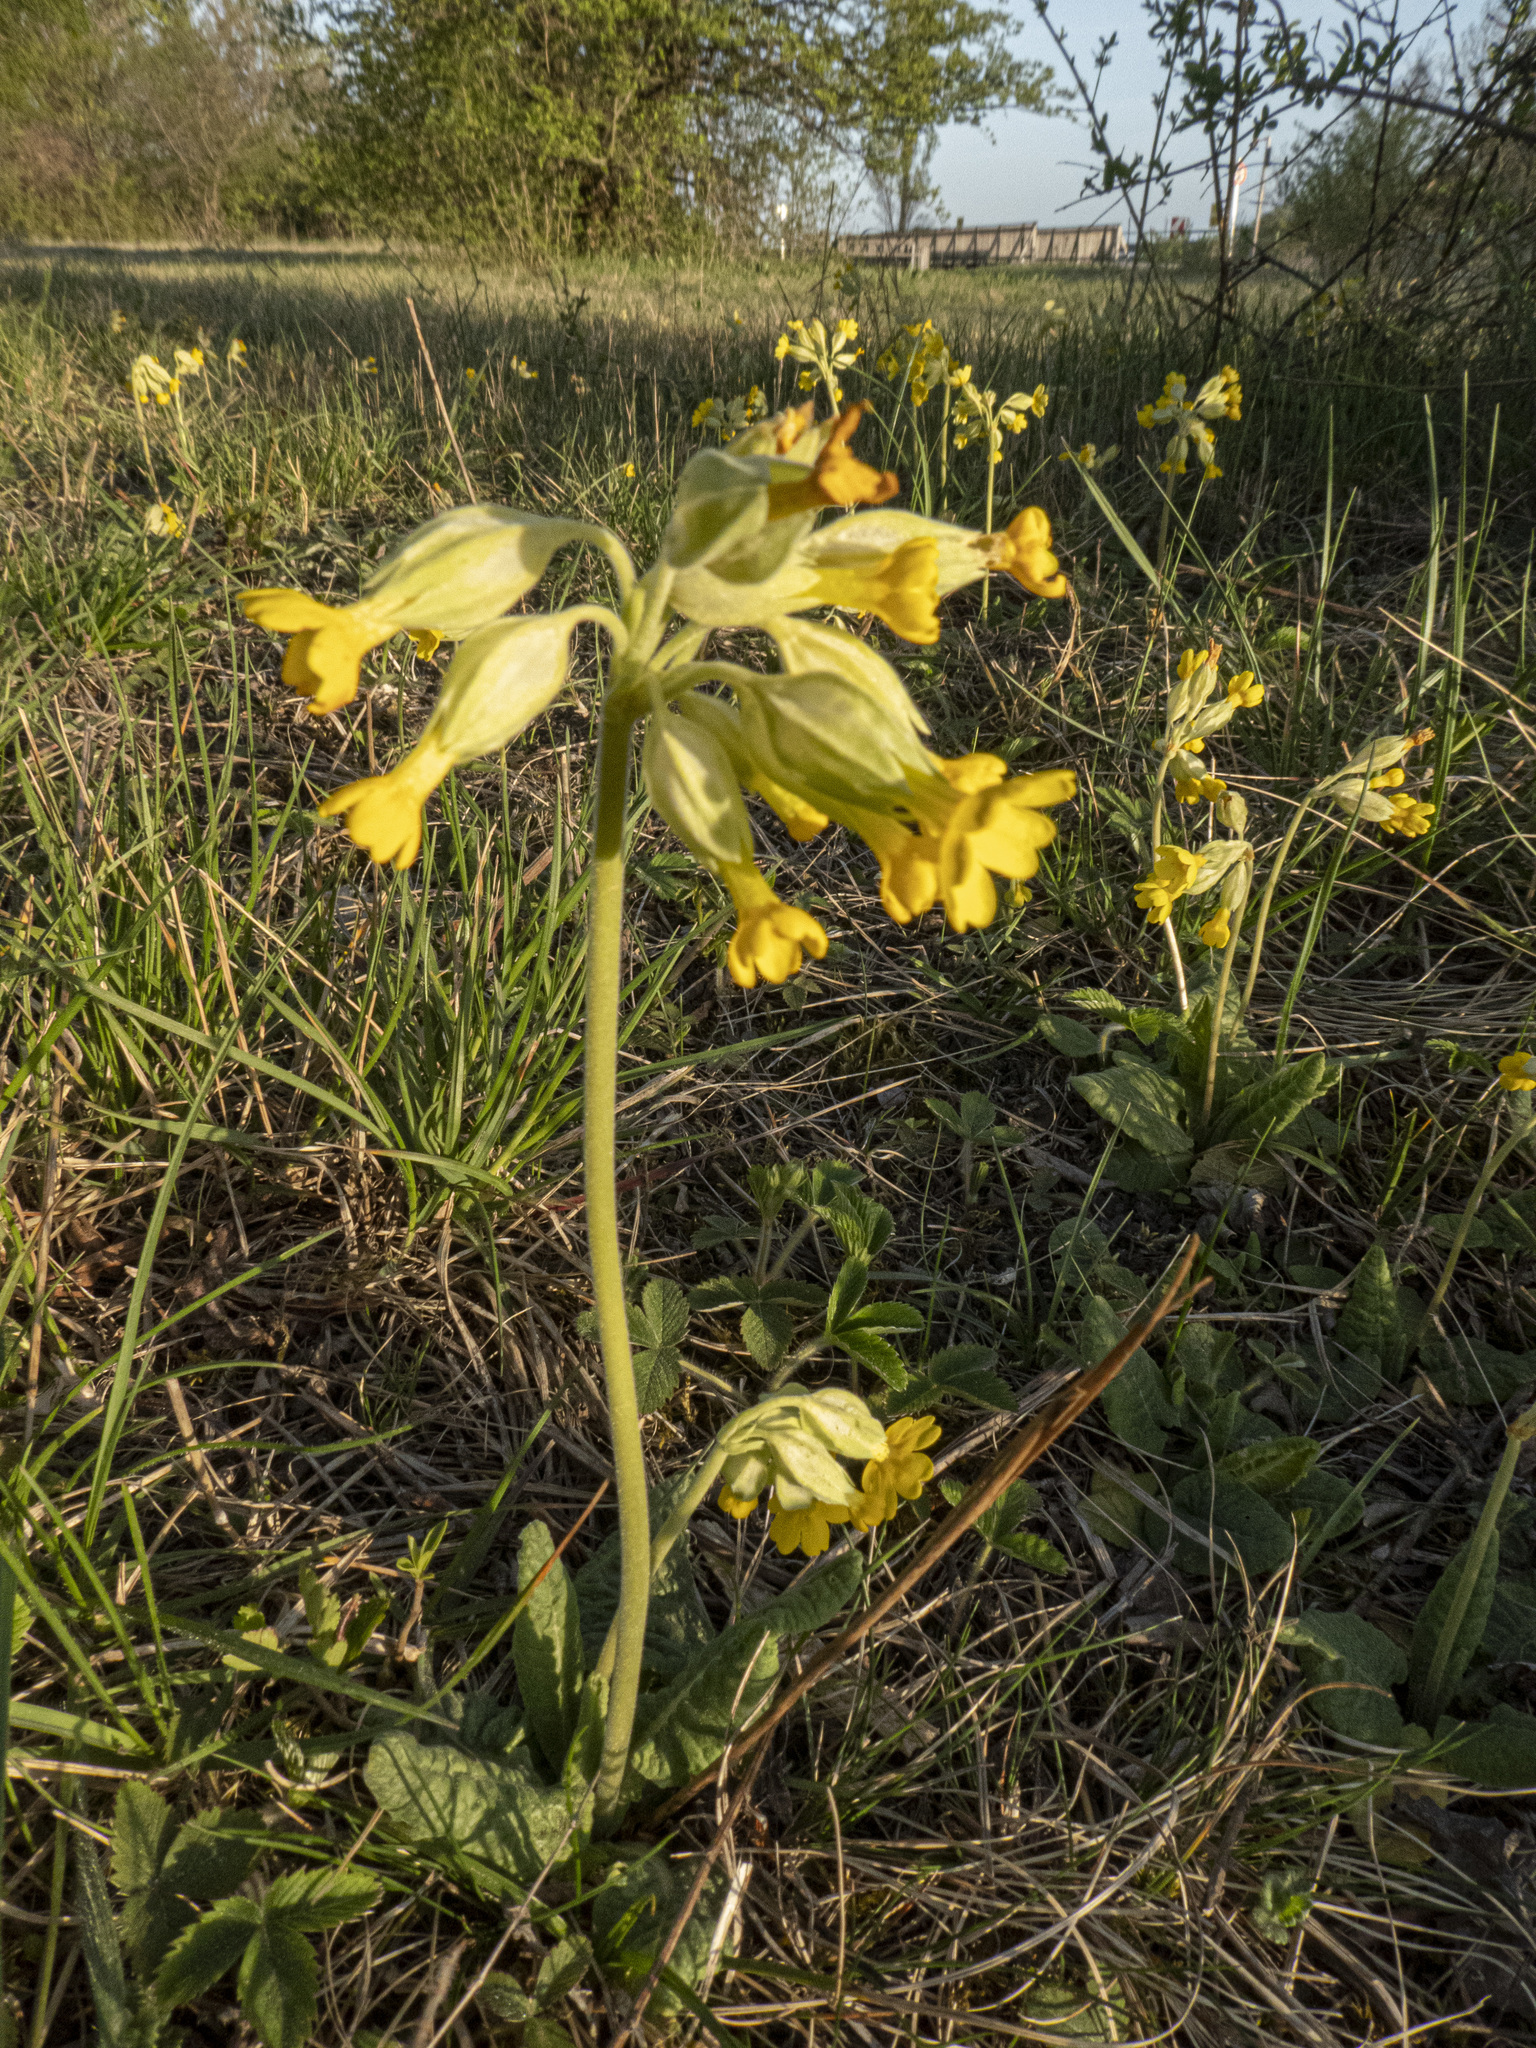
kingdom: Plantae
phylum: Tracheophyta
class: Magnoliopsida
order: Ericales
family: Primulaceae
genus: Primula
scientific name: Primula veris
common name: Cowslip
